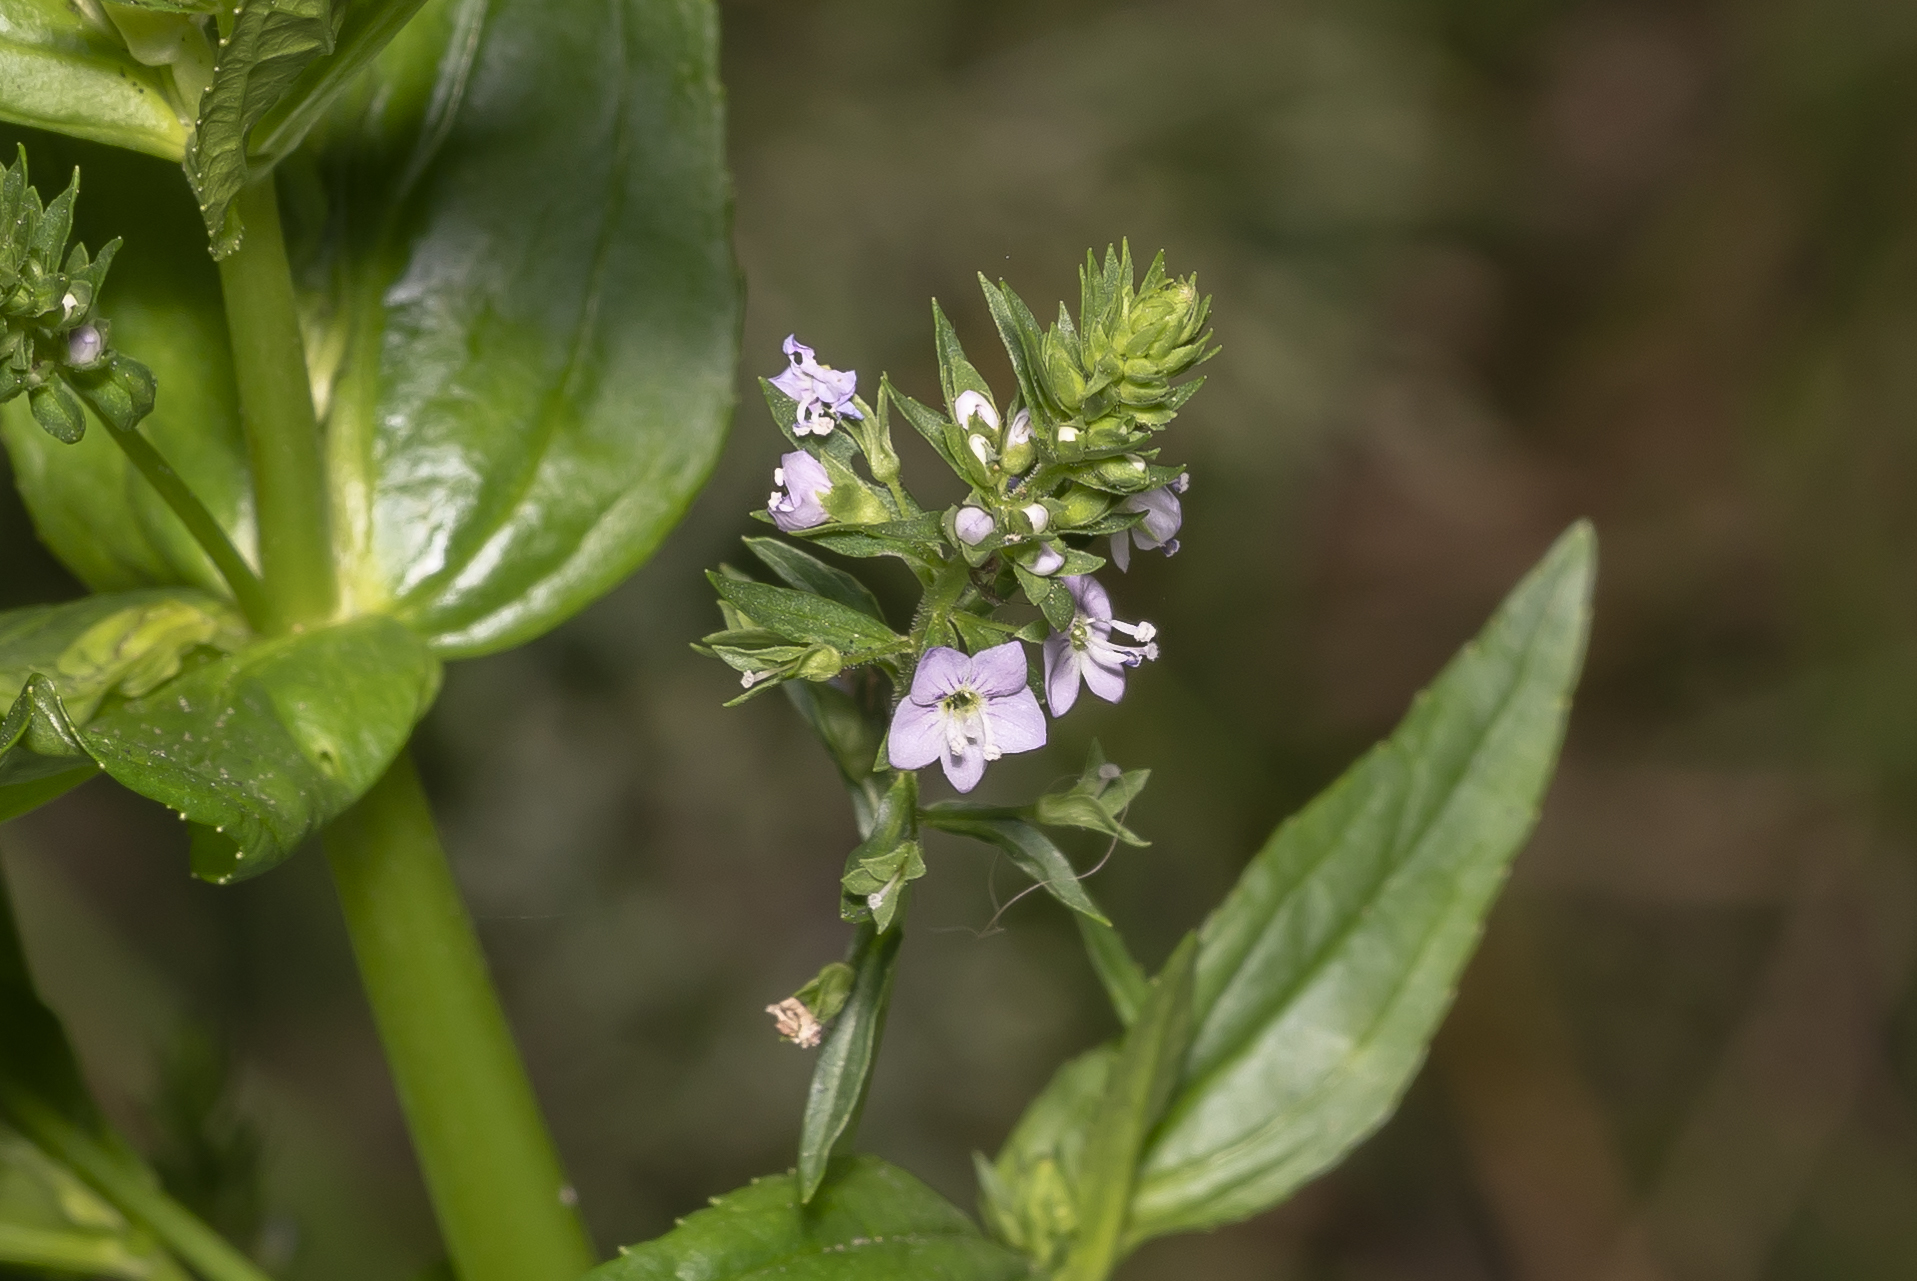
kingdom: Plantae
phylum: Tracheophyta
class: Magnoliopsida
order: Lamiales
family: Plantaginaceae
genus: Veronica
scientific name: Veronica anagallis-aquatica
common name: Water speedwell
